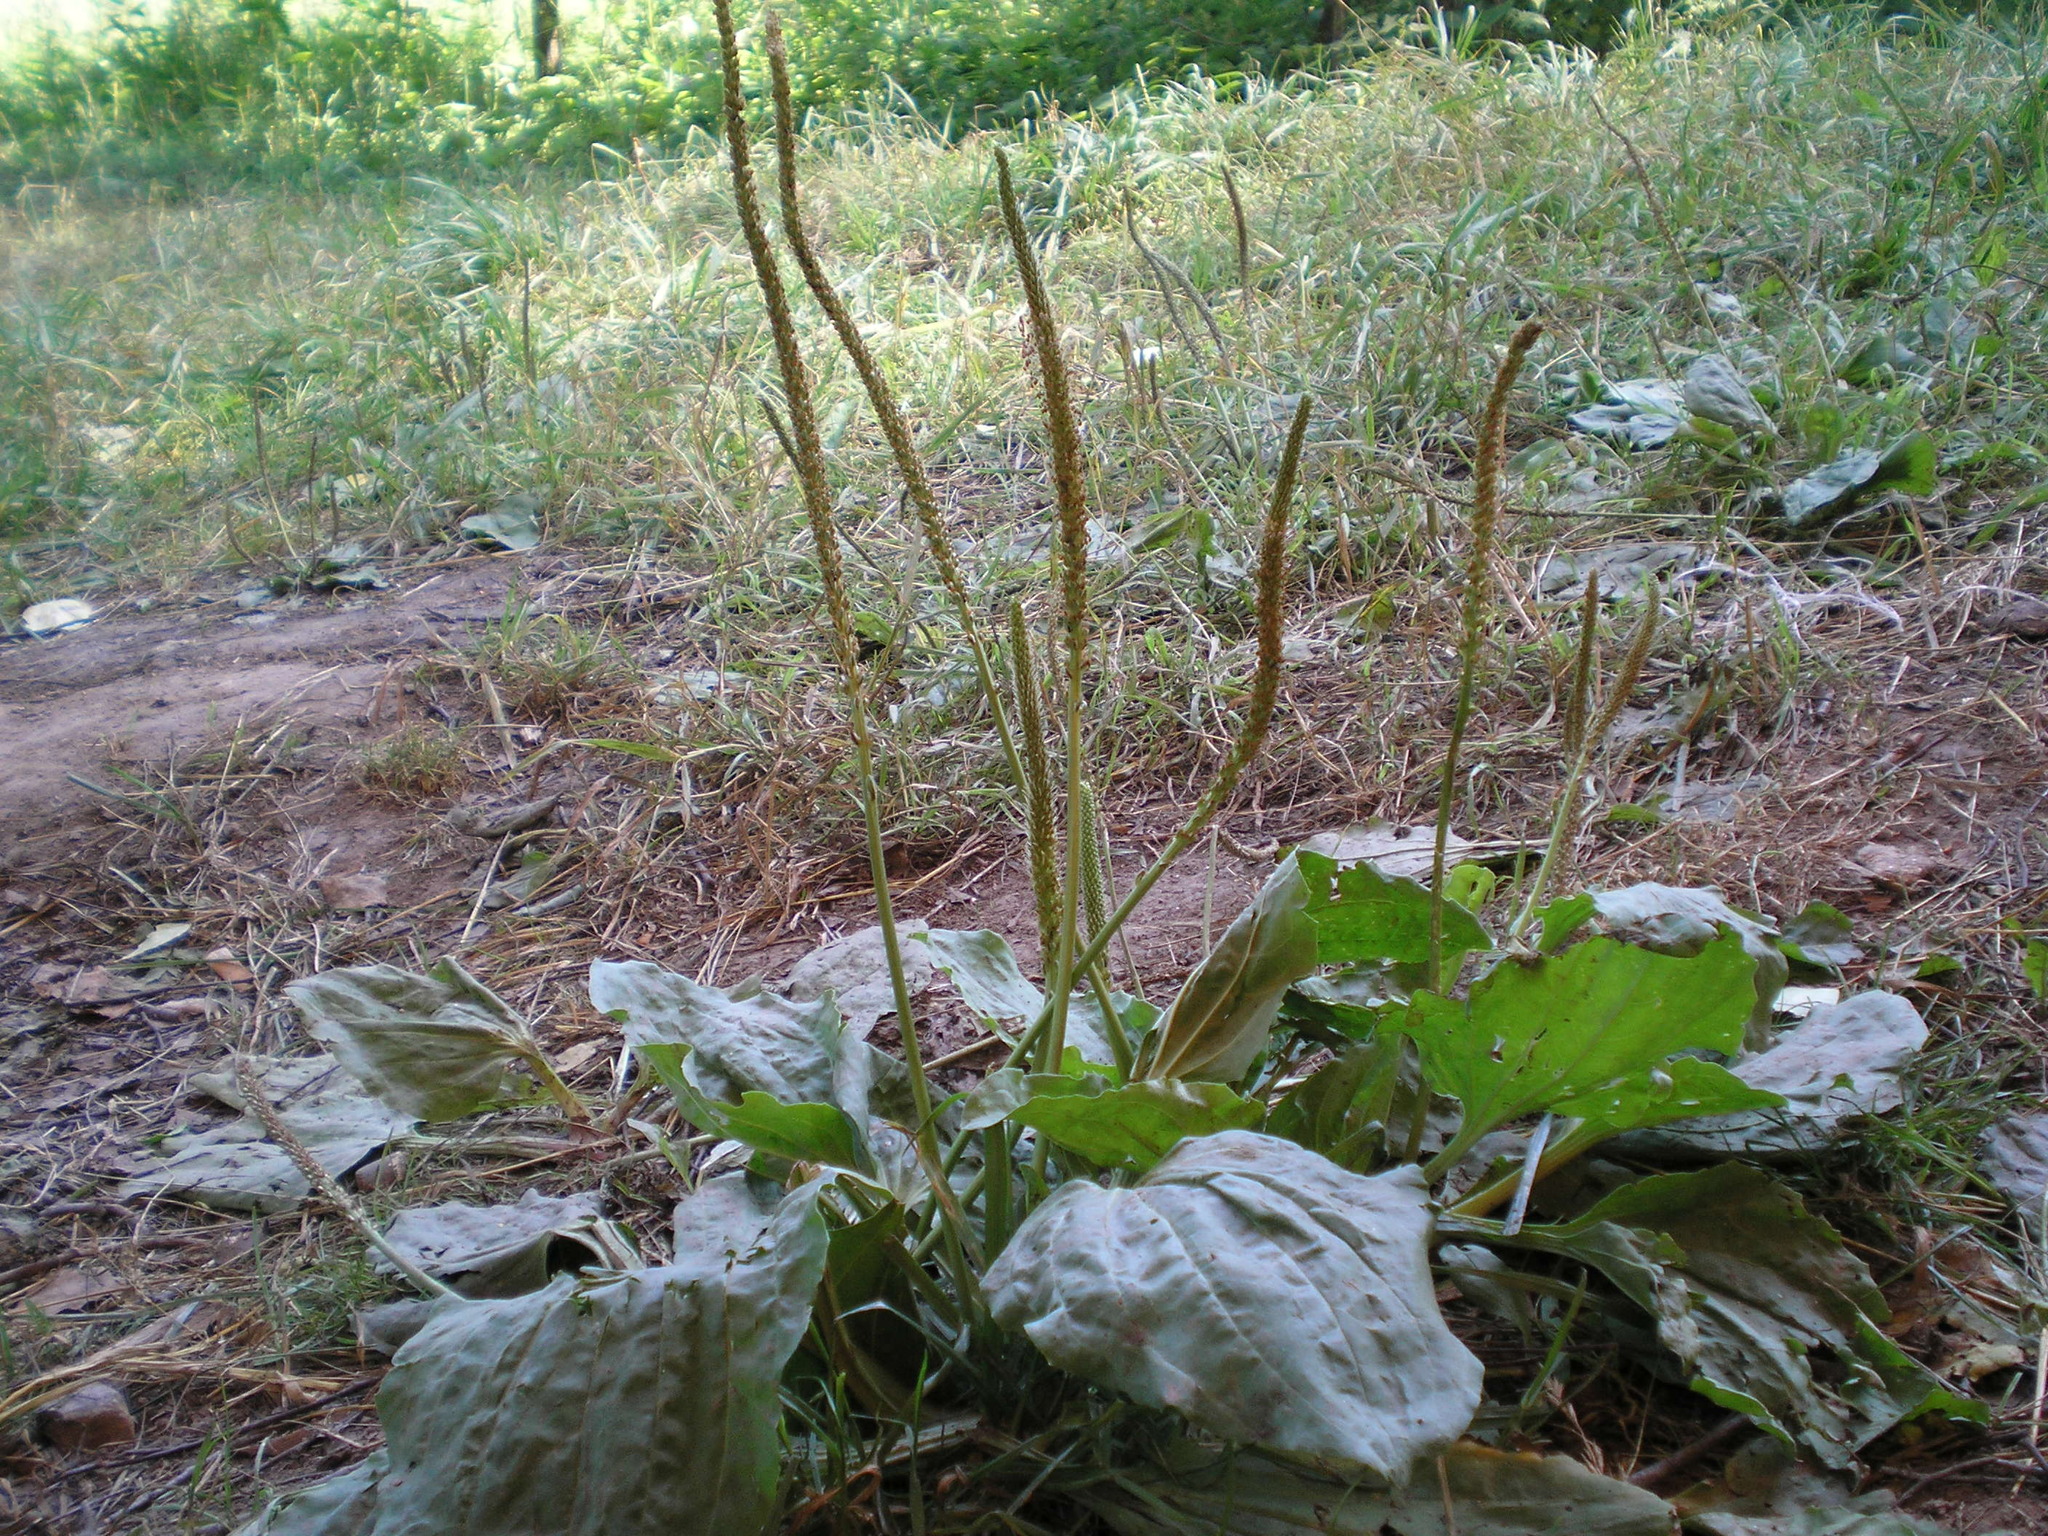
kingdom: Plantae
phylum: Tracheophyta
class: Magnoliopsida
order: Lamiales
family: Plantaginaceae
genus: Plantago
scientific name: Plantago major
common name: Common plantain
